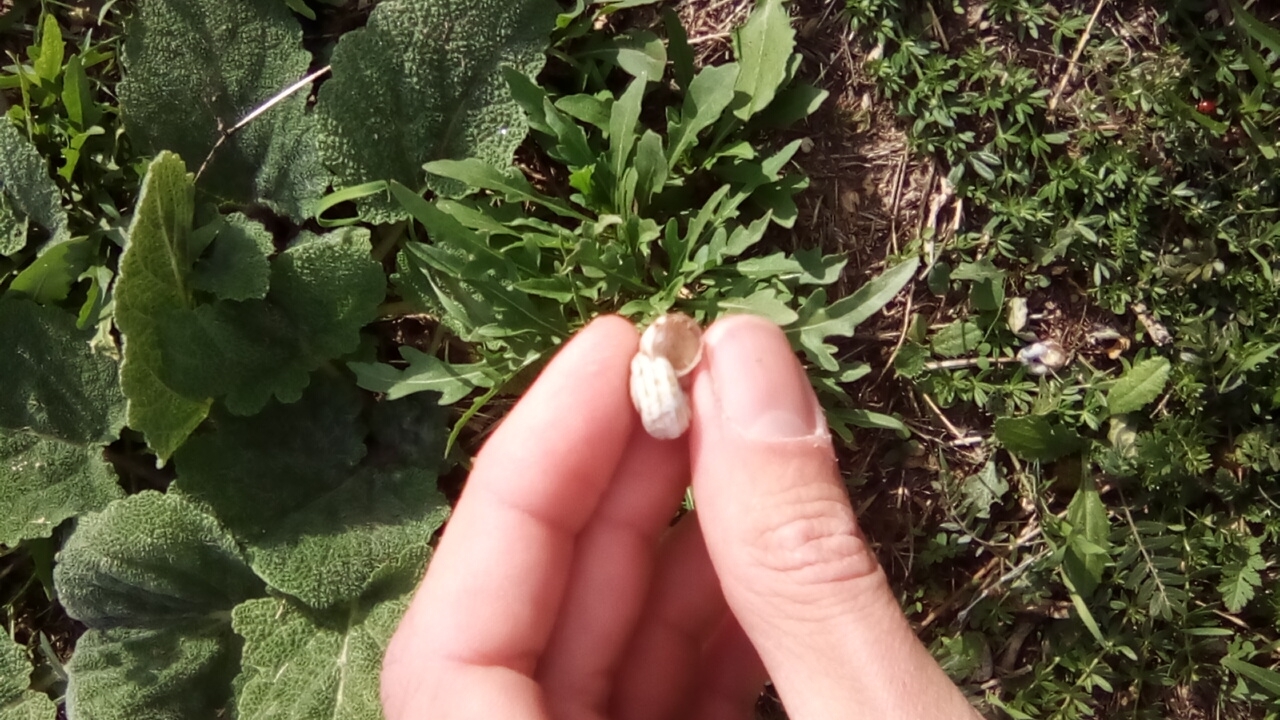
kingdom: Animalia
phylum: Mollusca
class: Gastropoda
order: Stylommatophora
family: Geomitridae
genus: Xeropicta
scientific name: Xeropicta derbentina
